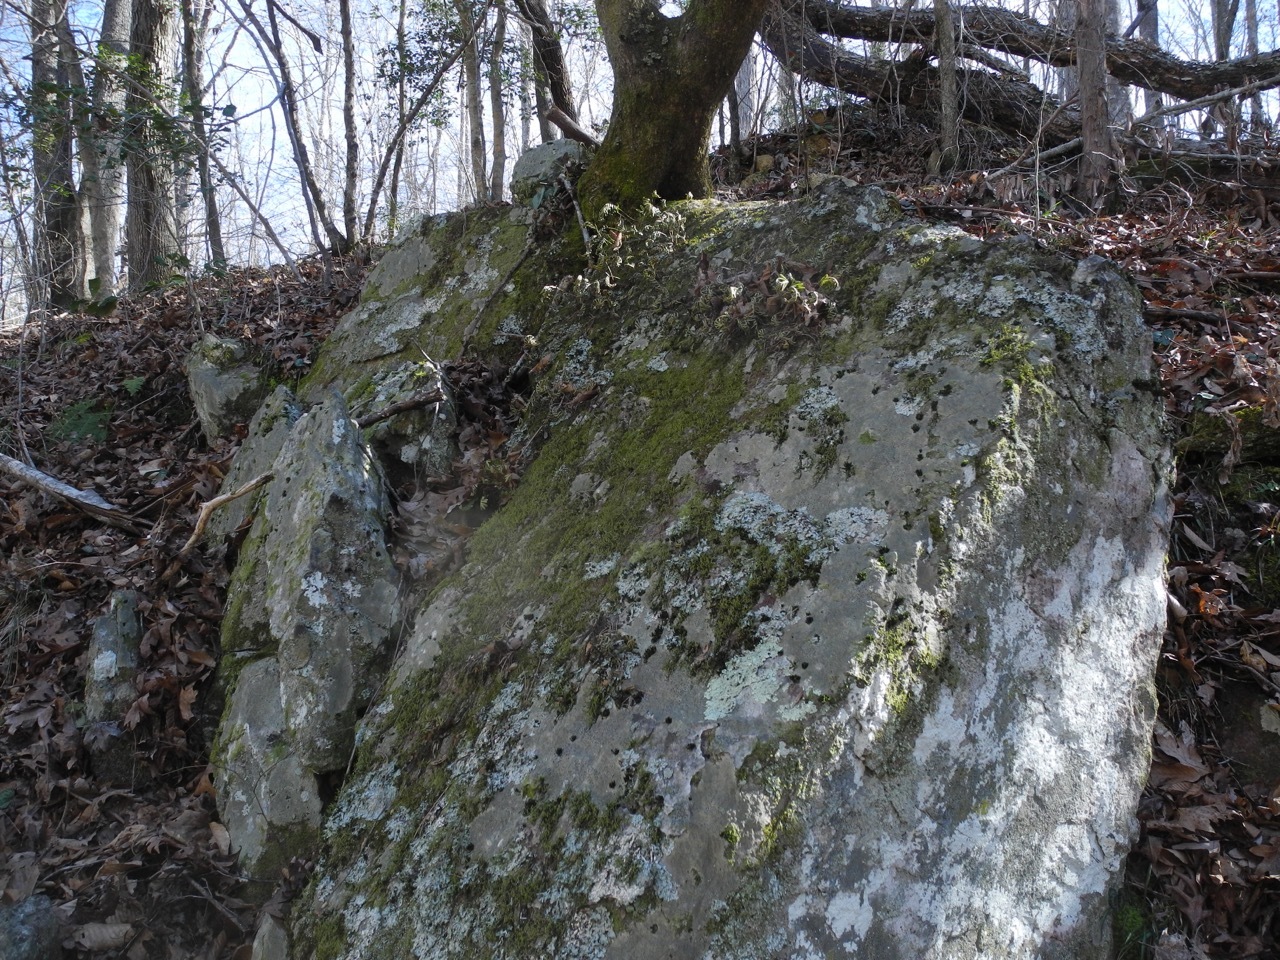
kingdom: Plantae
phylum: Tracheophyta
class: Polypodiopsida
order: Polypodiales
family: Polypodiaceae
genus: Pleopeltis
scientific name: Pleopeltis michauxiana
